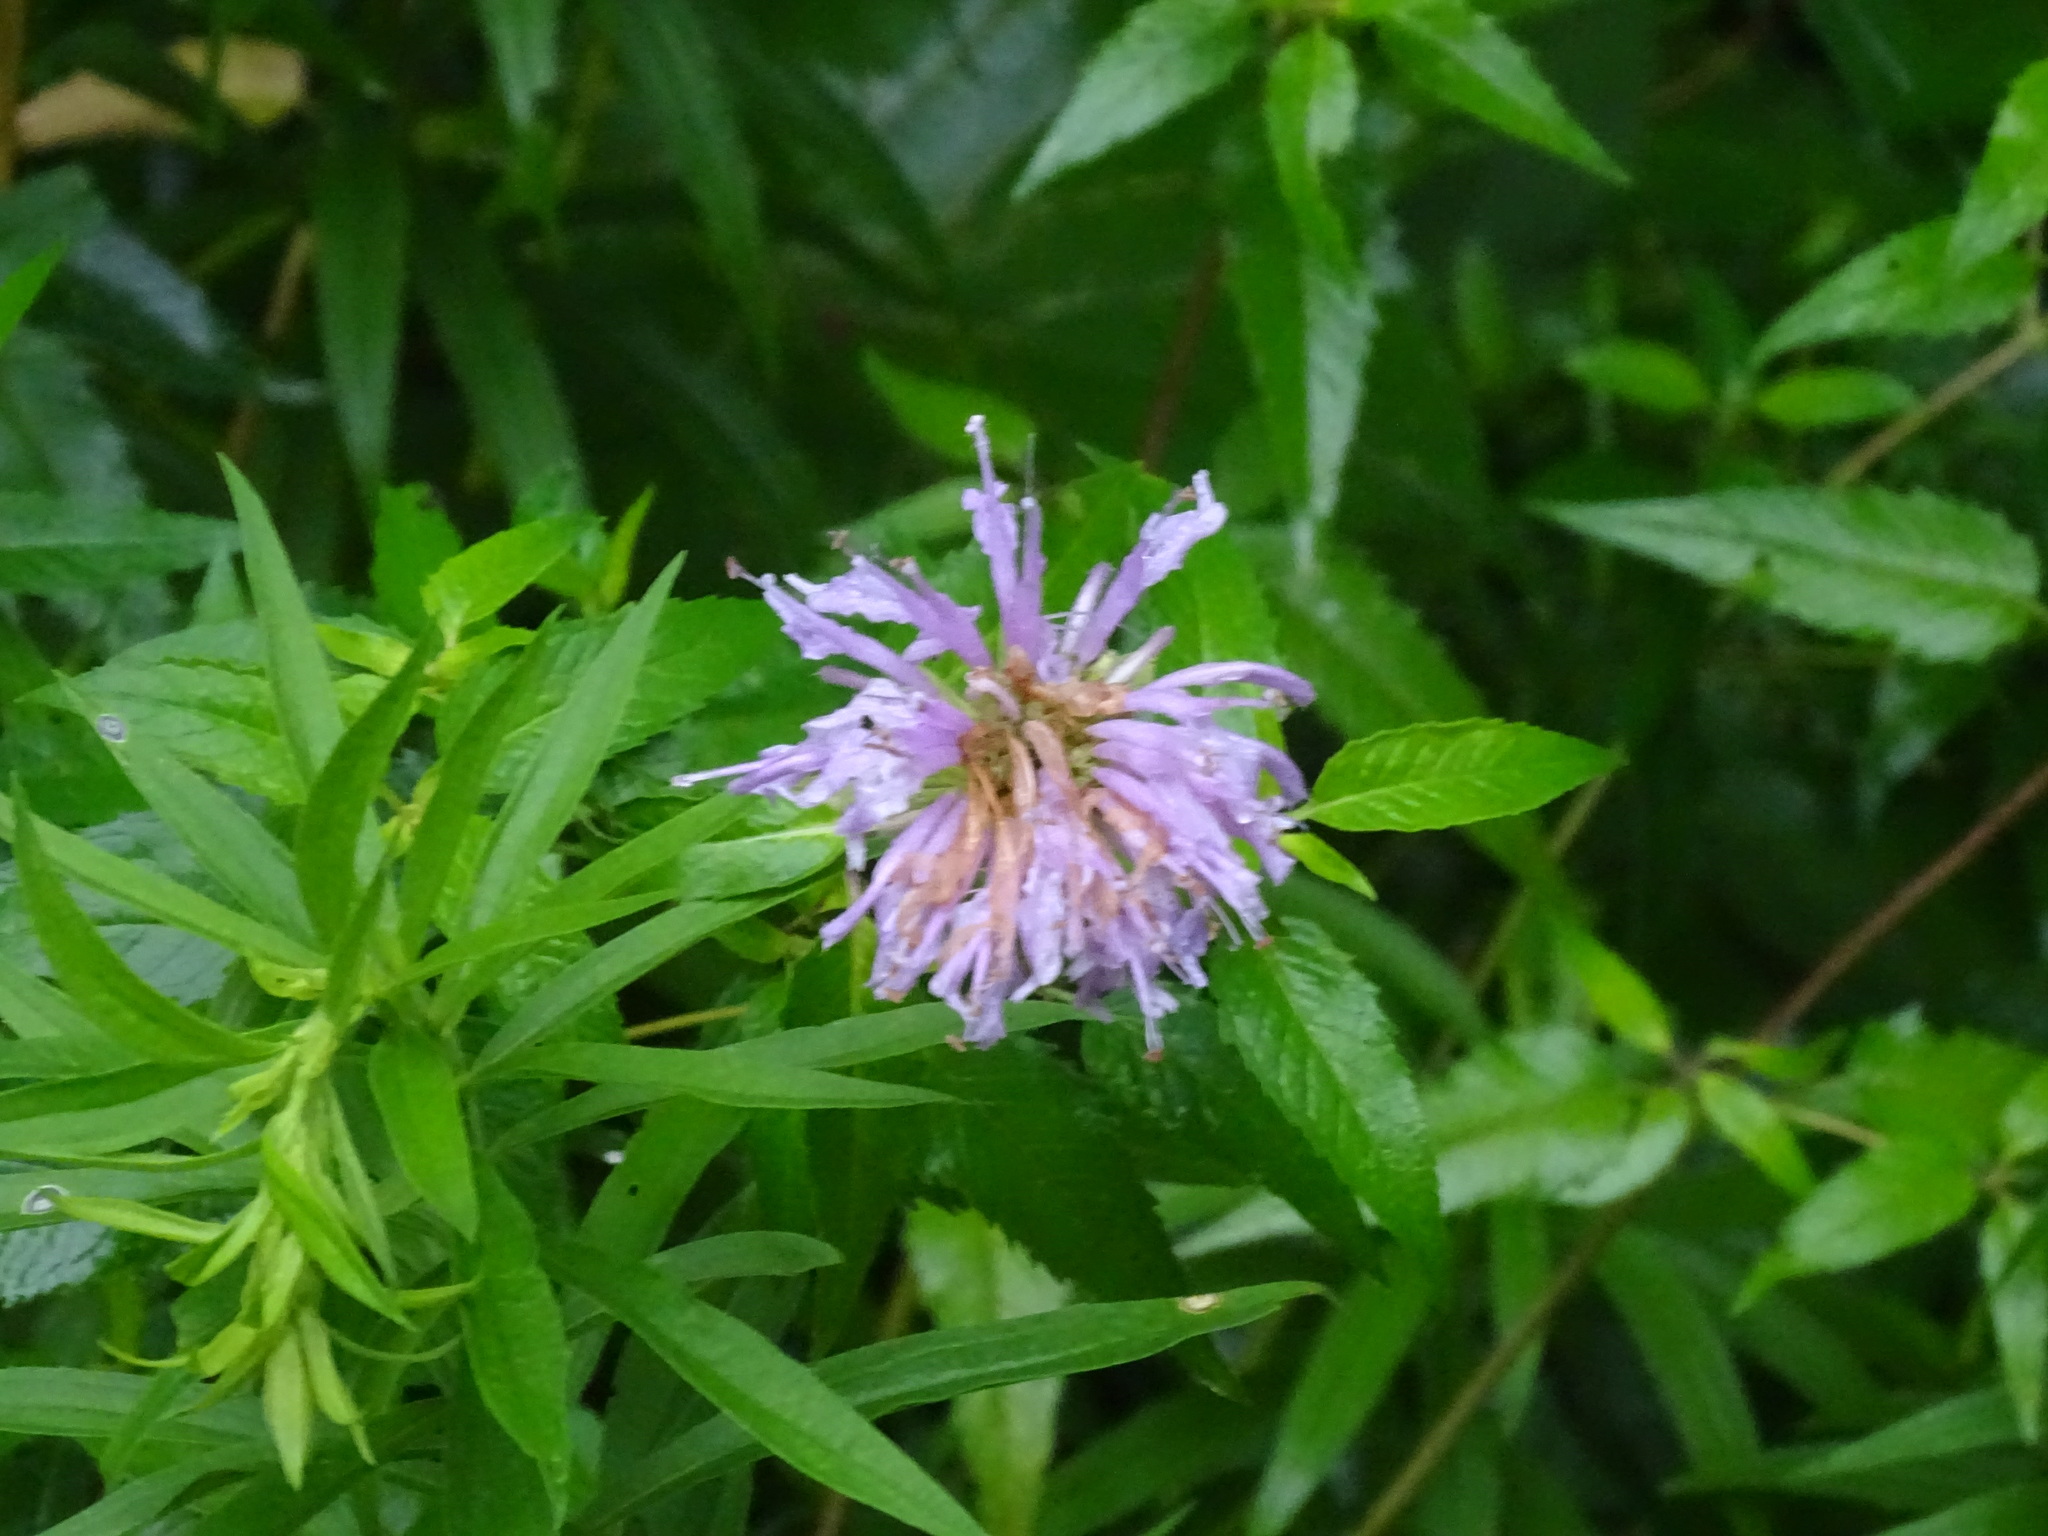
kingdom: Plantae
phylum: Tracheophyta
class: Magnoliopsida
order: Lamiales
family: Lamiaceae
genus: Monarda
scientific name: Monarda fistulosa
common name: Purple beebalm
